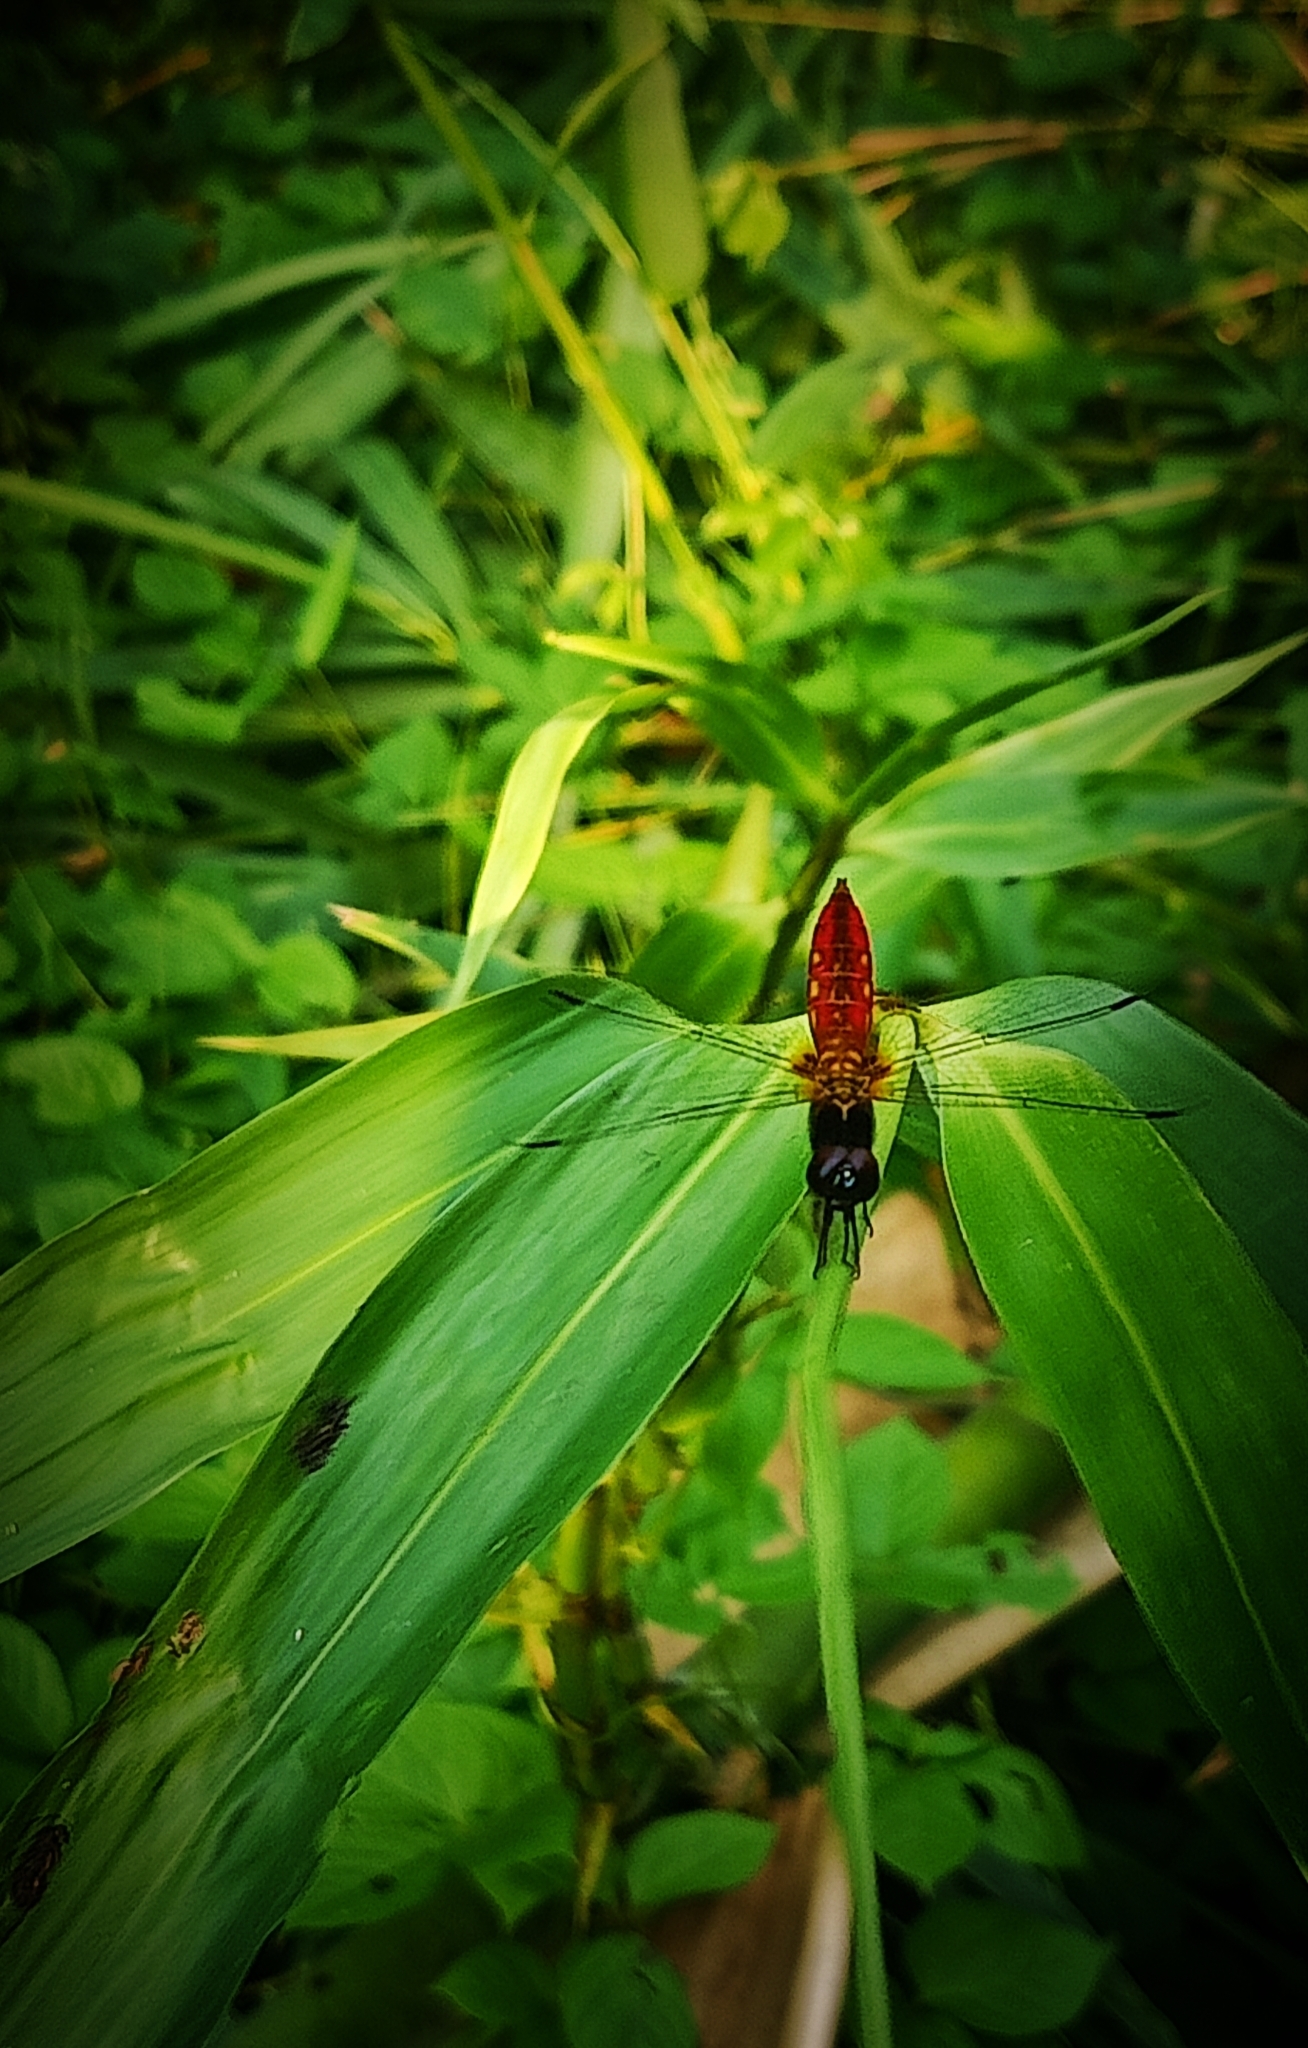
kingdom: Animalia
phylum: Arthropoda
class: Insecta
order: Odonata
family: Libellulidae
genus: Aethriamanta
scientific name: Aethriamanta brevipennis
